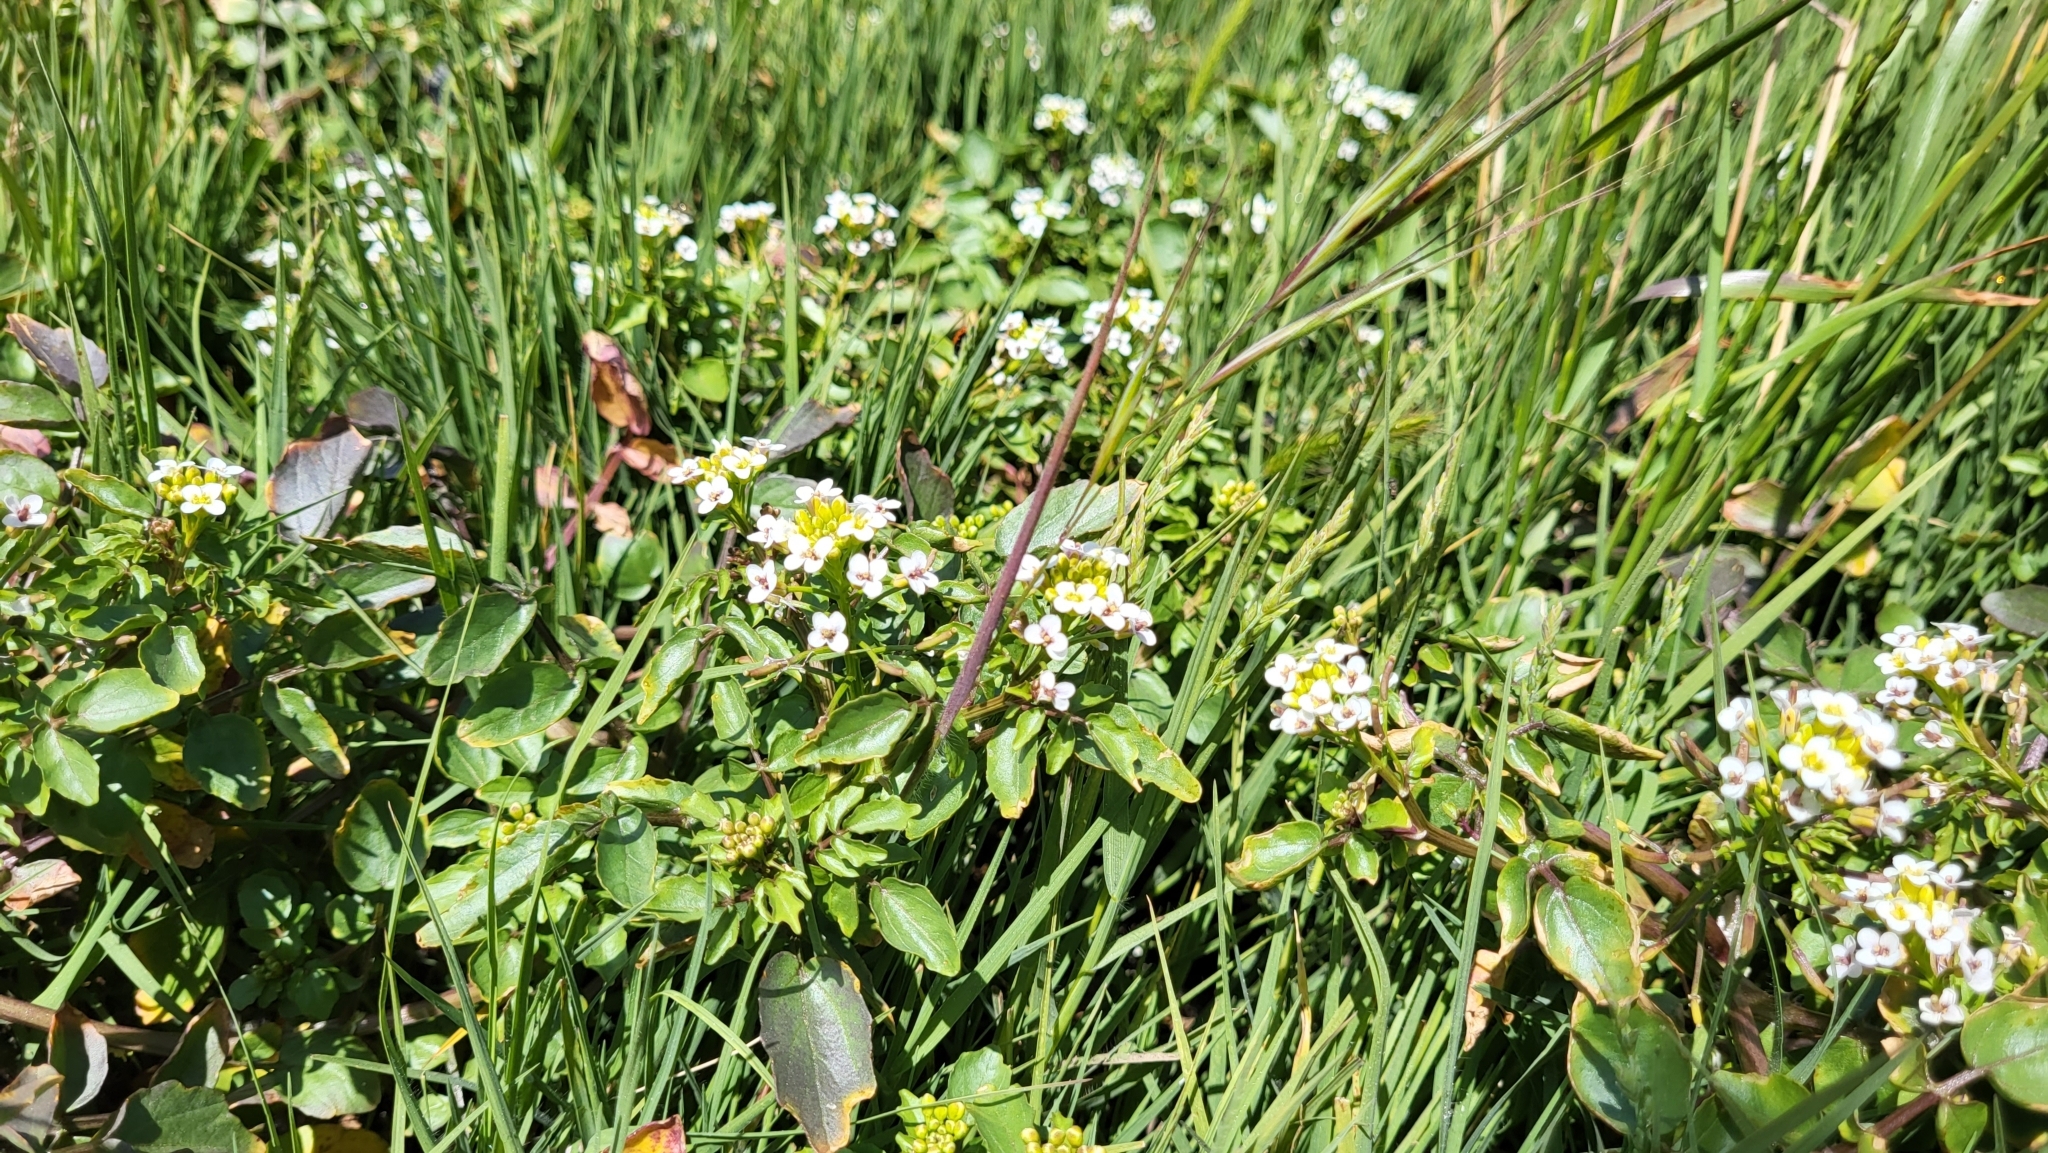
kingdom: Plantae
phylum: Tracheophyta
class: Magnoliopsida
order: Brassicales
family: Brassicaceae
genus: Nasturtium
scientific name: Nasturtium officinale
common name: Watercress
